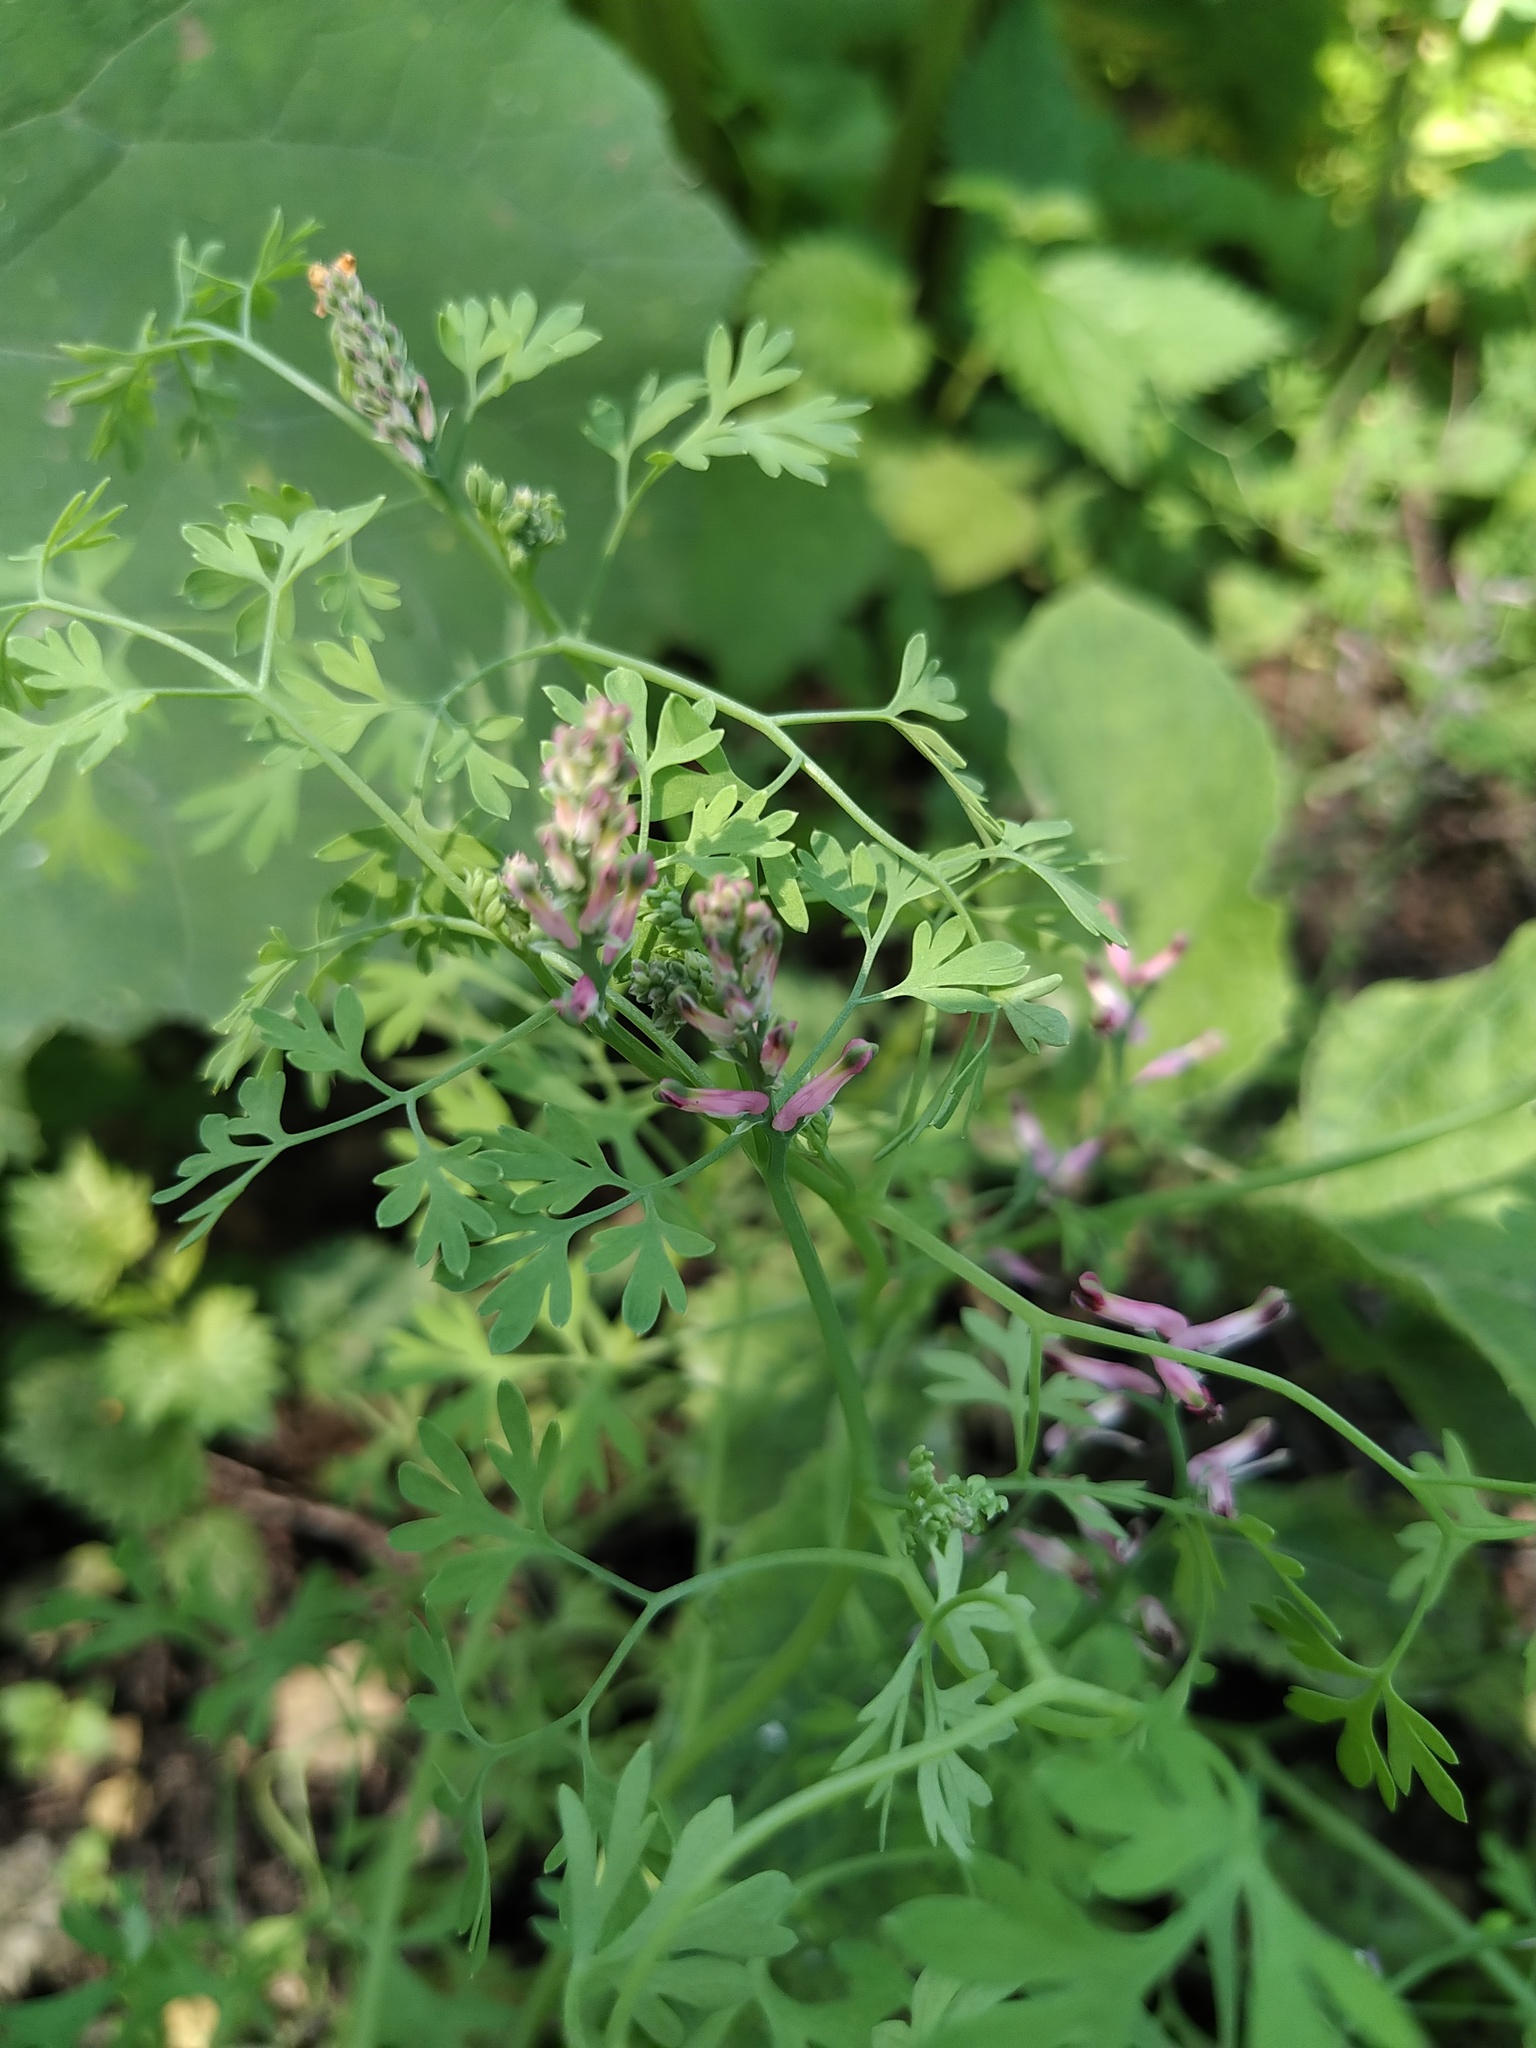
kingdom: Plantae
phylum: Tracheophyta
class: Magnoliopsida
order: Ranunculales
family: Papaveraceae
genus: Fumaria
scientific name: Fumaria officinalis
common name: Common fumitory
